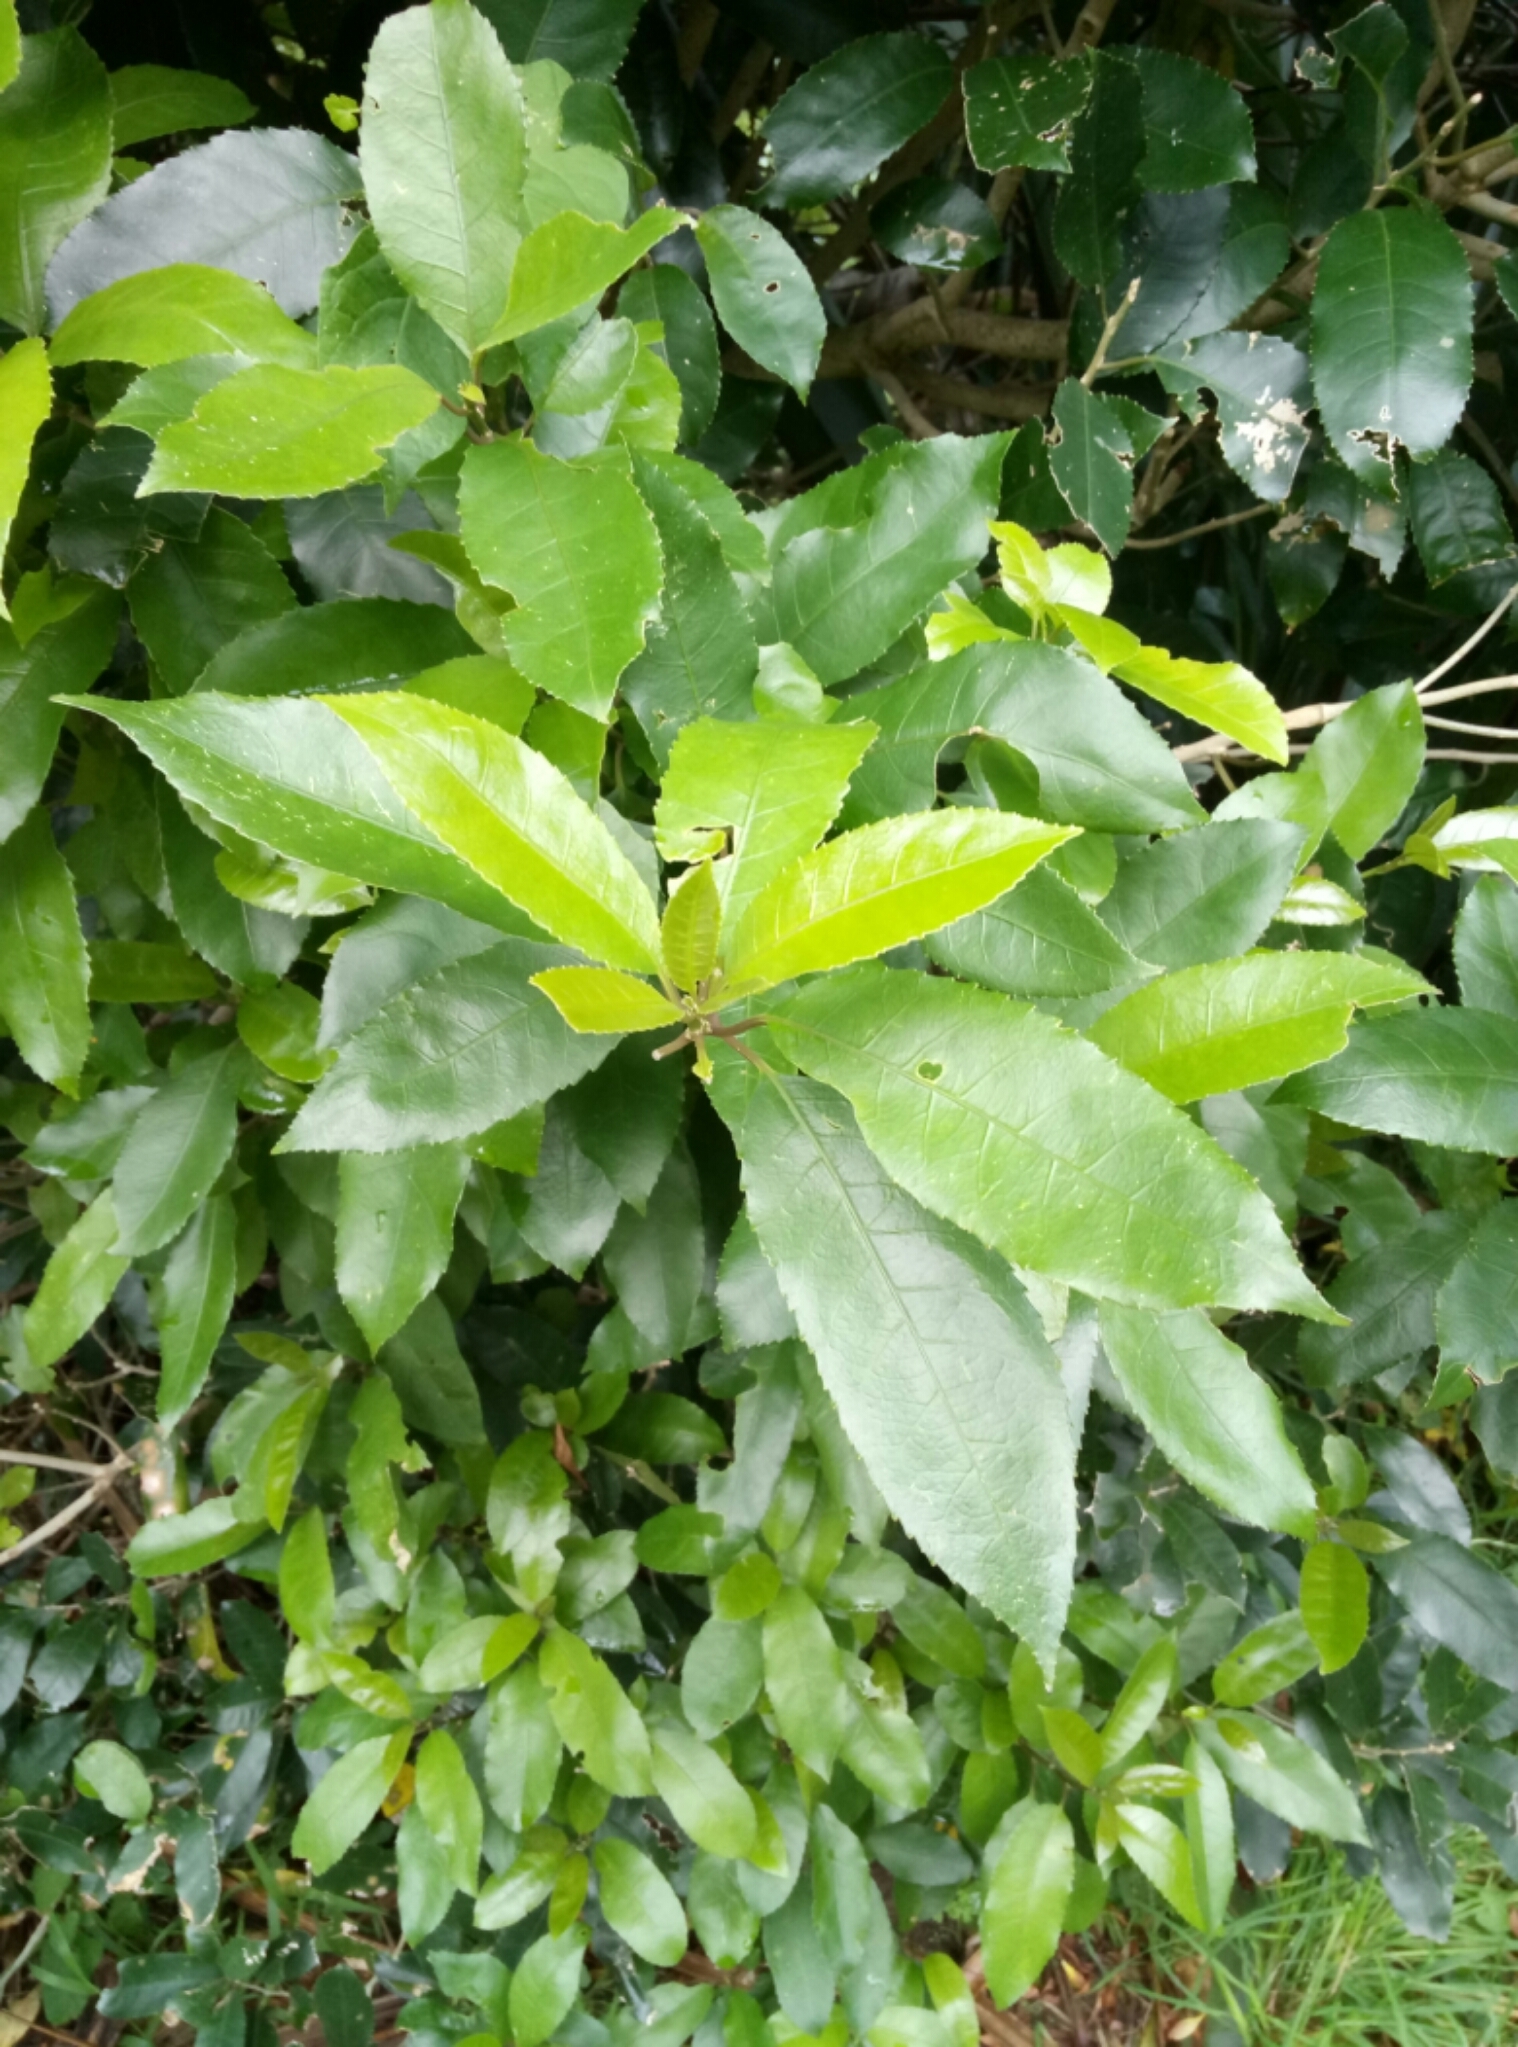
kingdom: Plantae
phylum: Tracheophyta
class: Magnoliopsida
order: Malpighiales
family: Violaceae
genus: Melicytus
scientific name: Melicytus ramiflorus
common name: Mahoe
